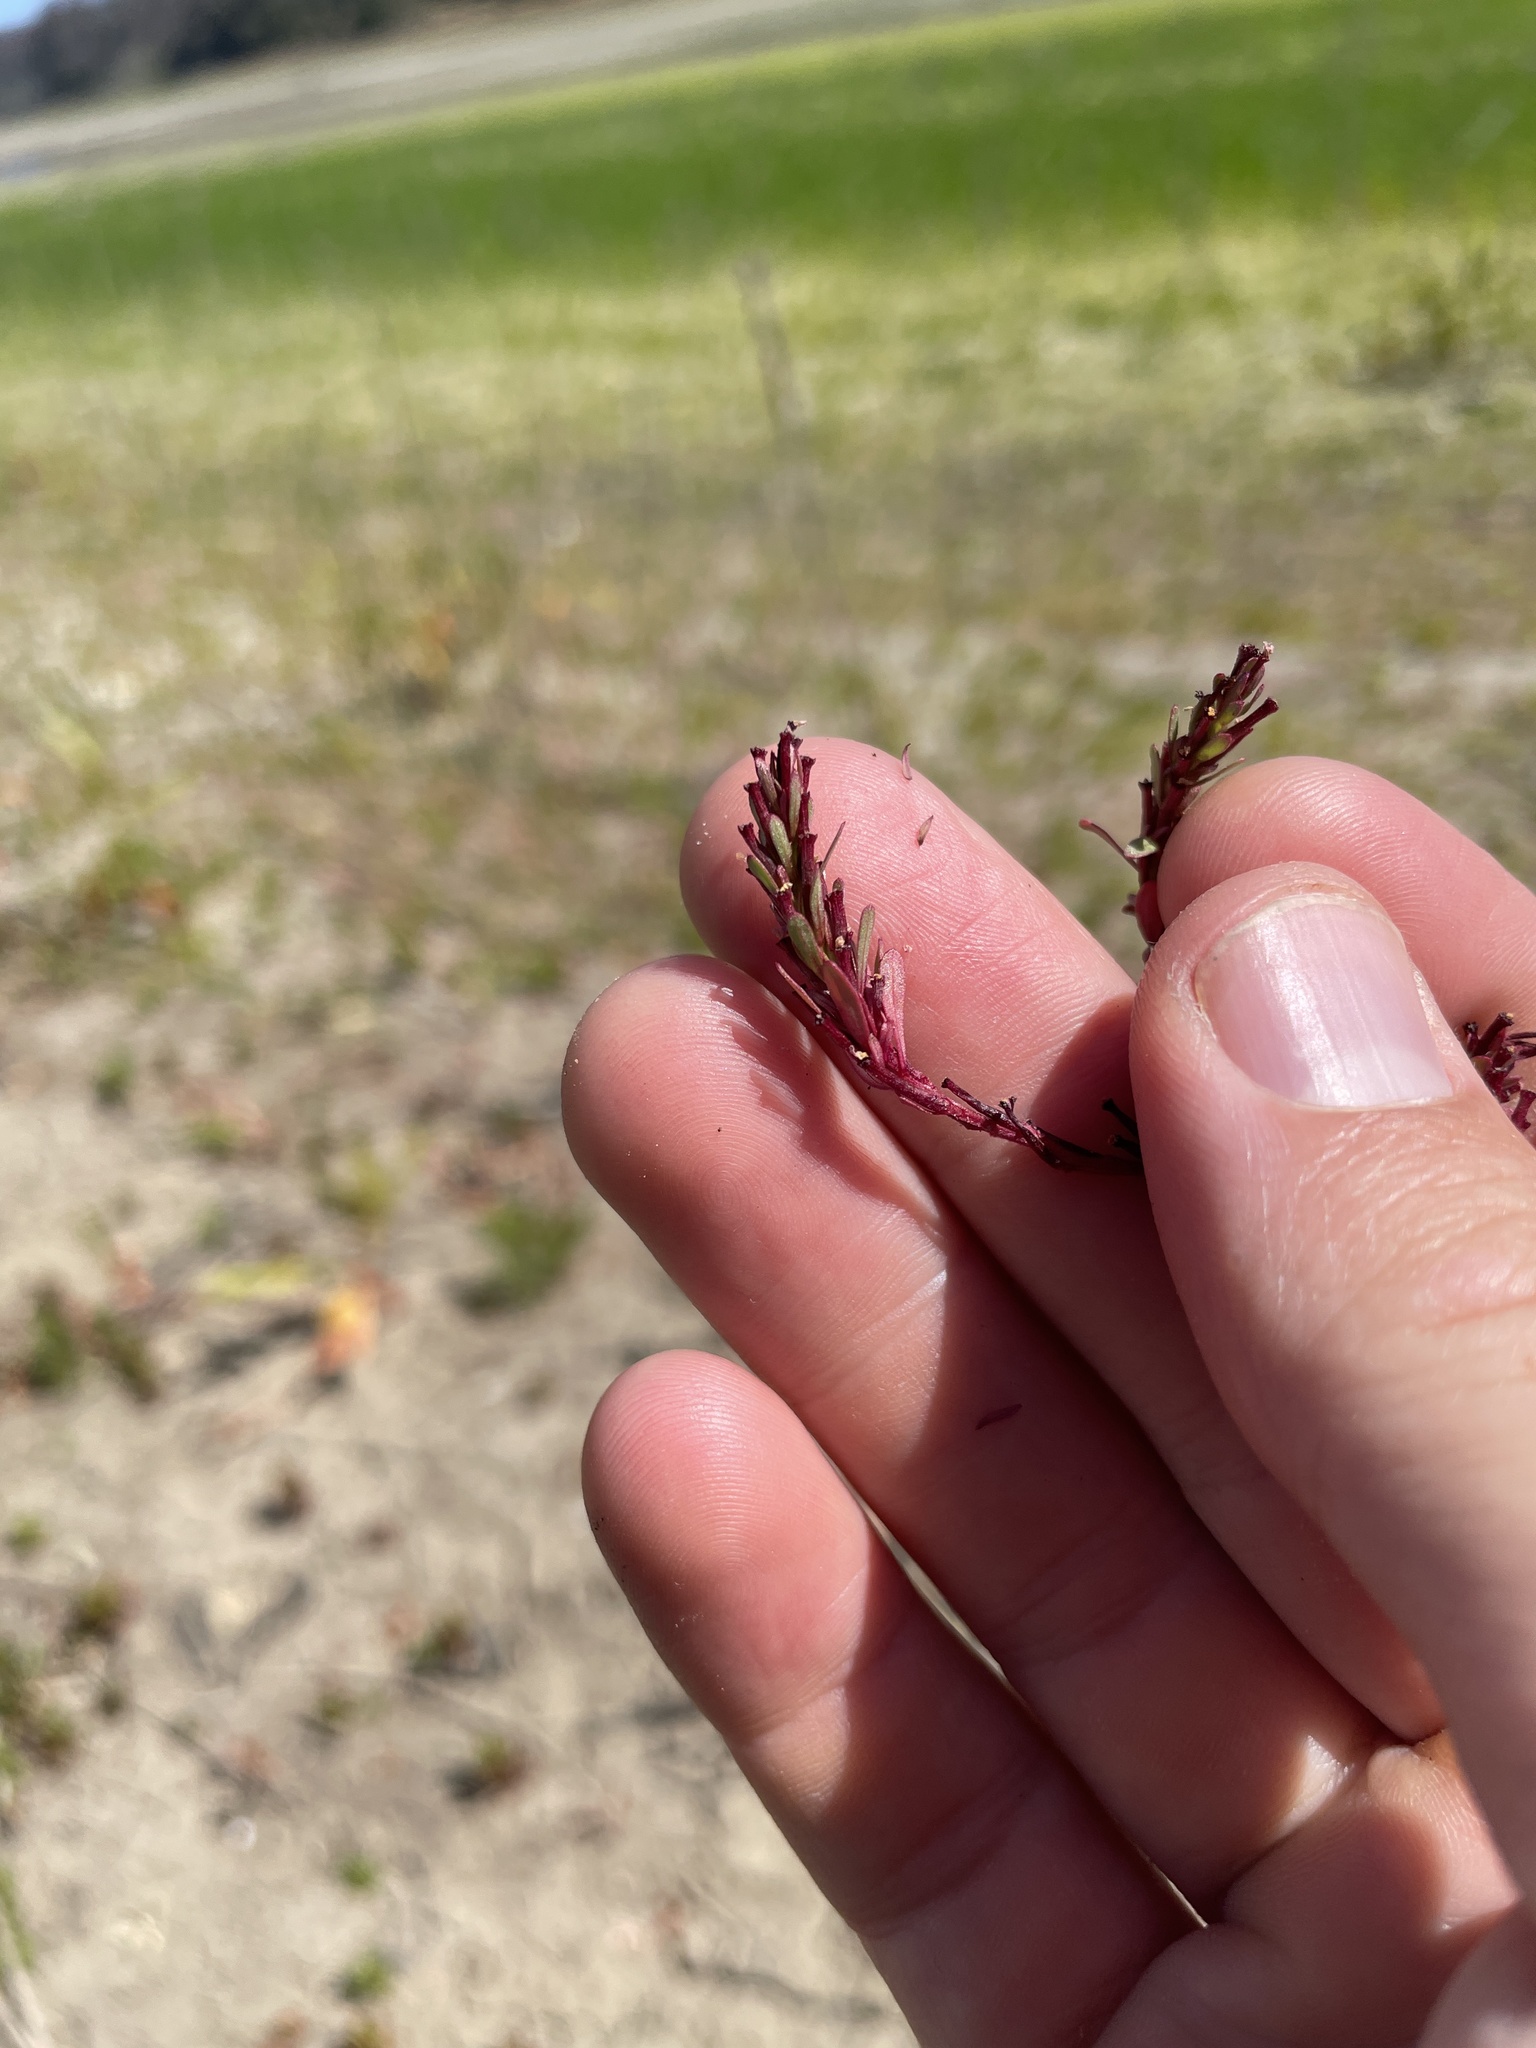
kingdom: Plantae
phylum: Tracheophyta
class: Magnoliopsida
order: Myrtales
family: Lythraceae
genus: Lythrum
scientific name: Lythrum tribracteatum
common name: Threebract loosestrife
